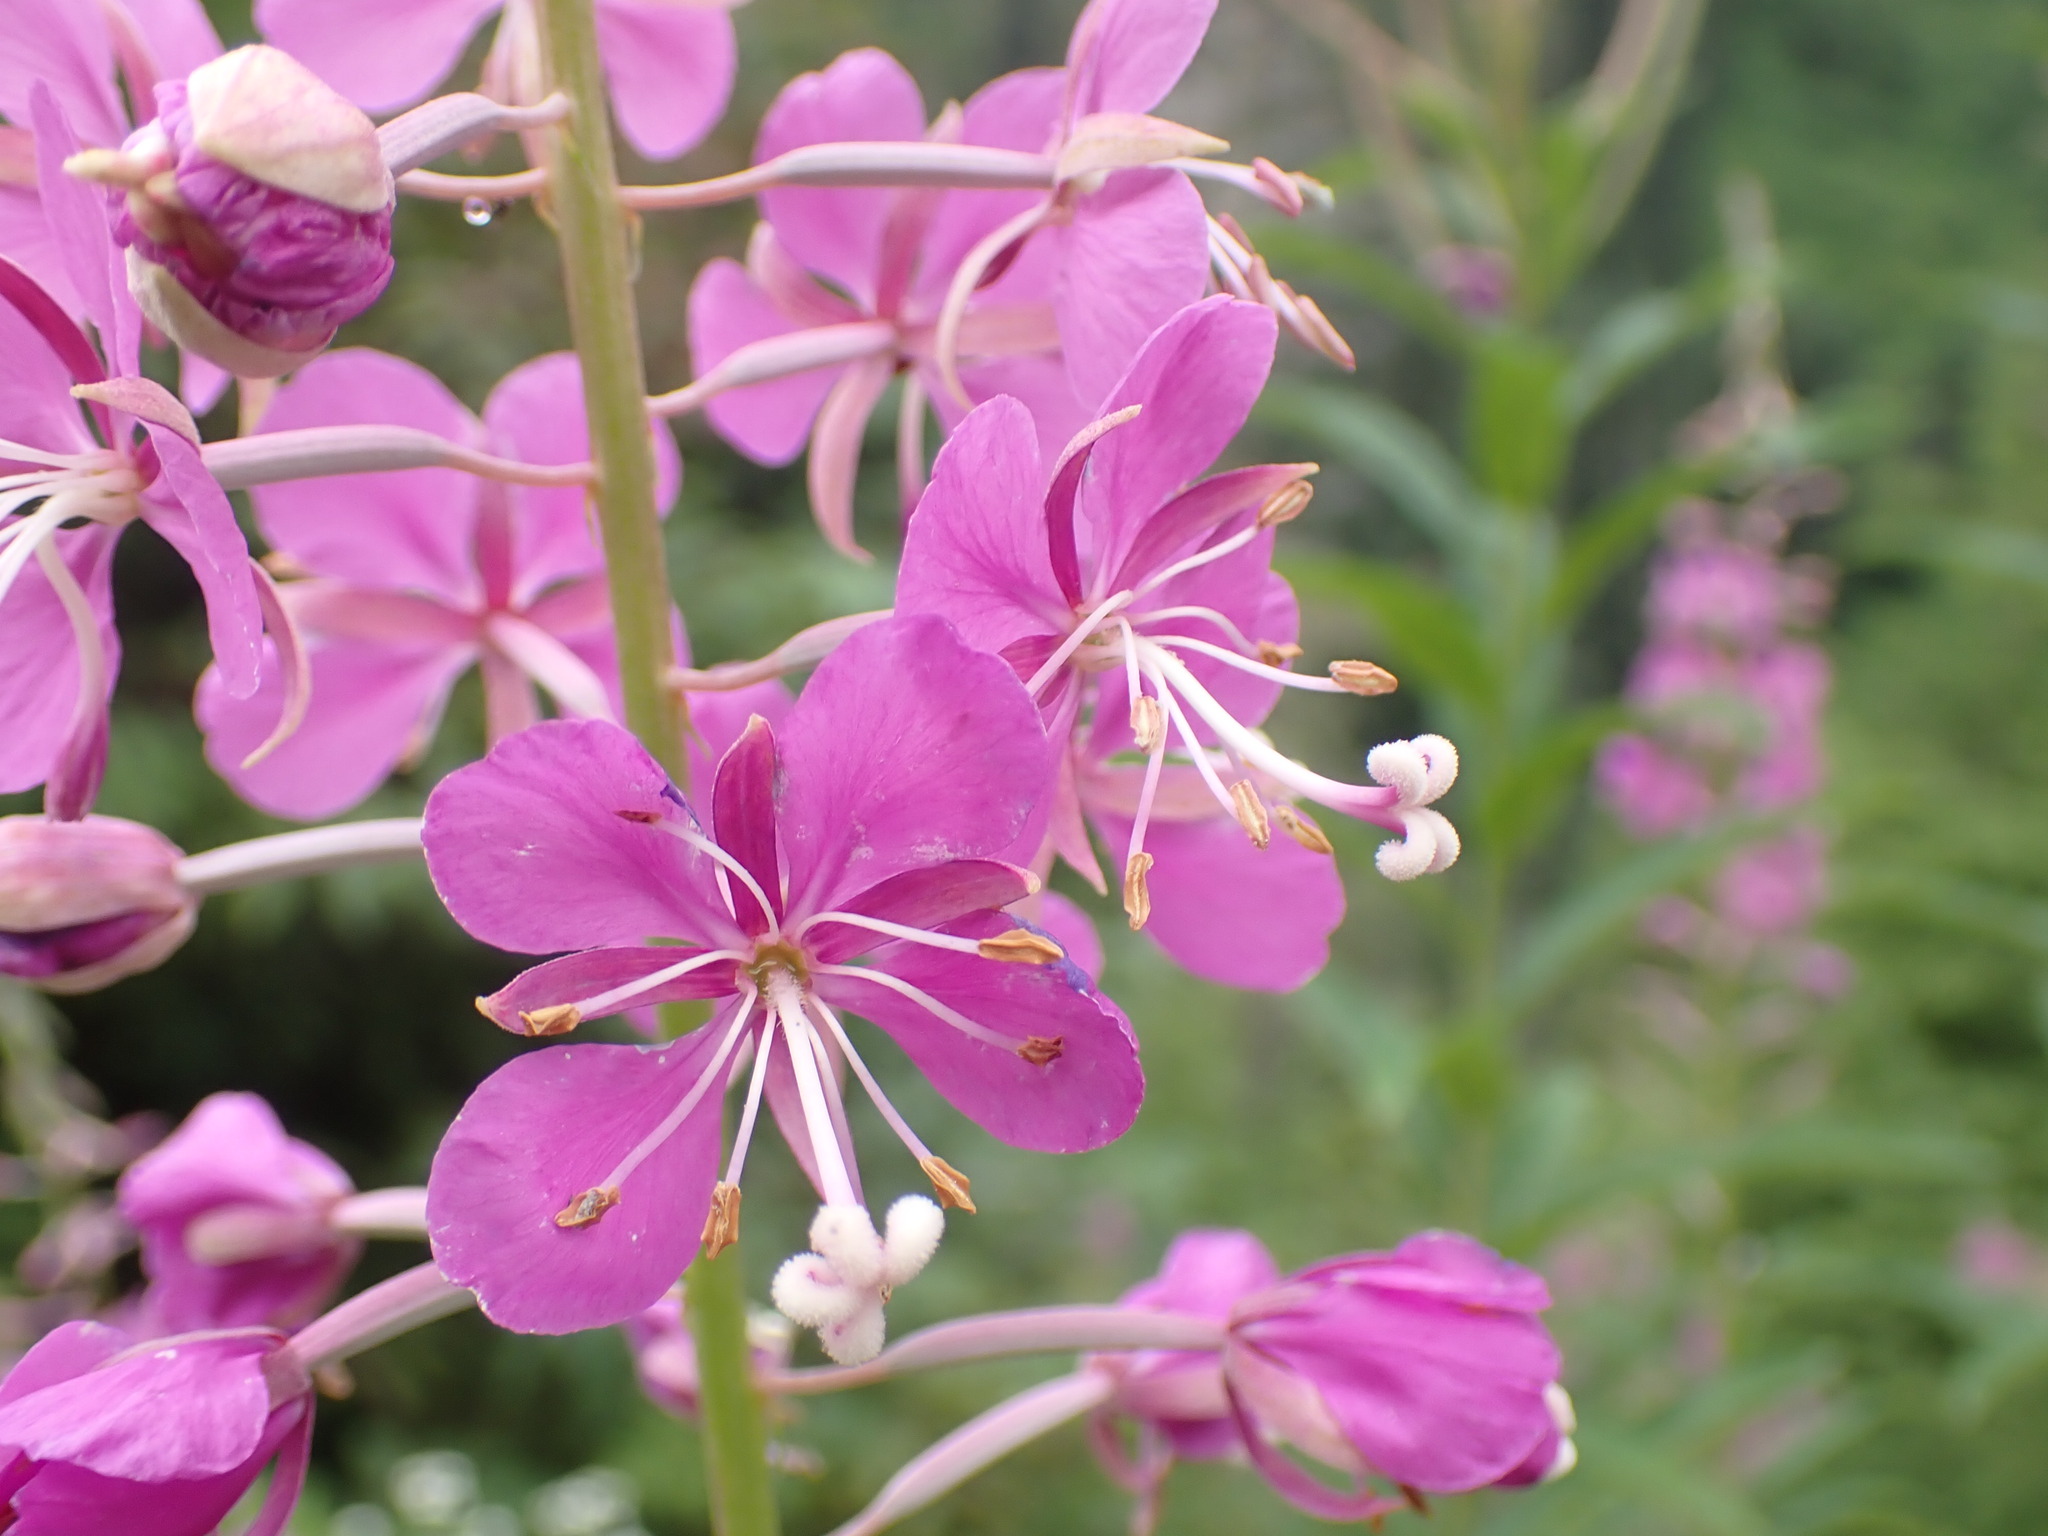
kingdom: Plantae
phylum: Tracheophyta
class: Magnoliopsida
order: Myrtales
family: Onagraceae
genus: Chamaenerion
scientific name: Chamaenerion angustifolium
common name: Fireweed
